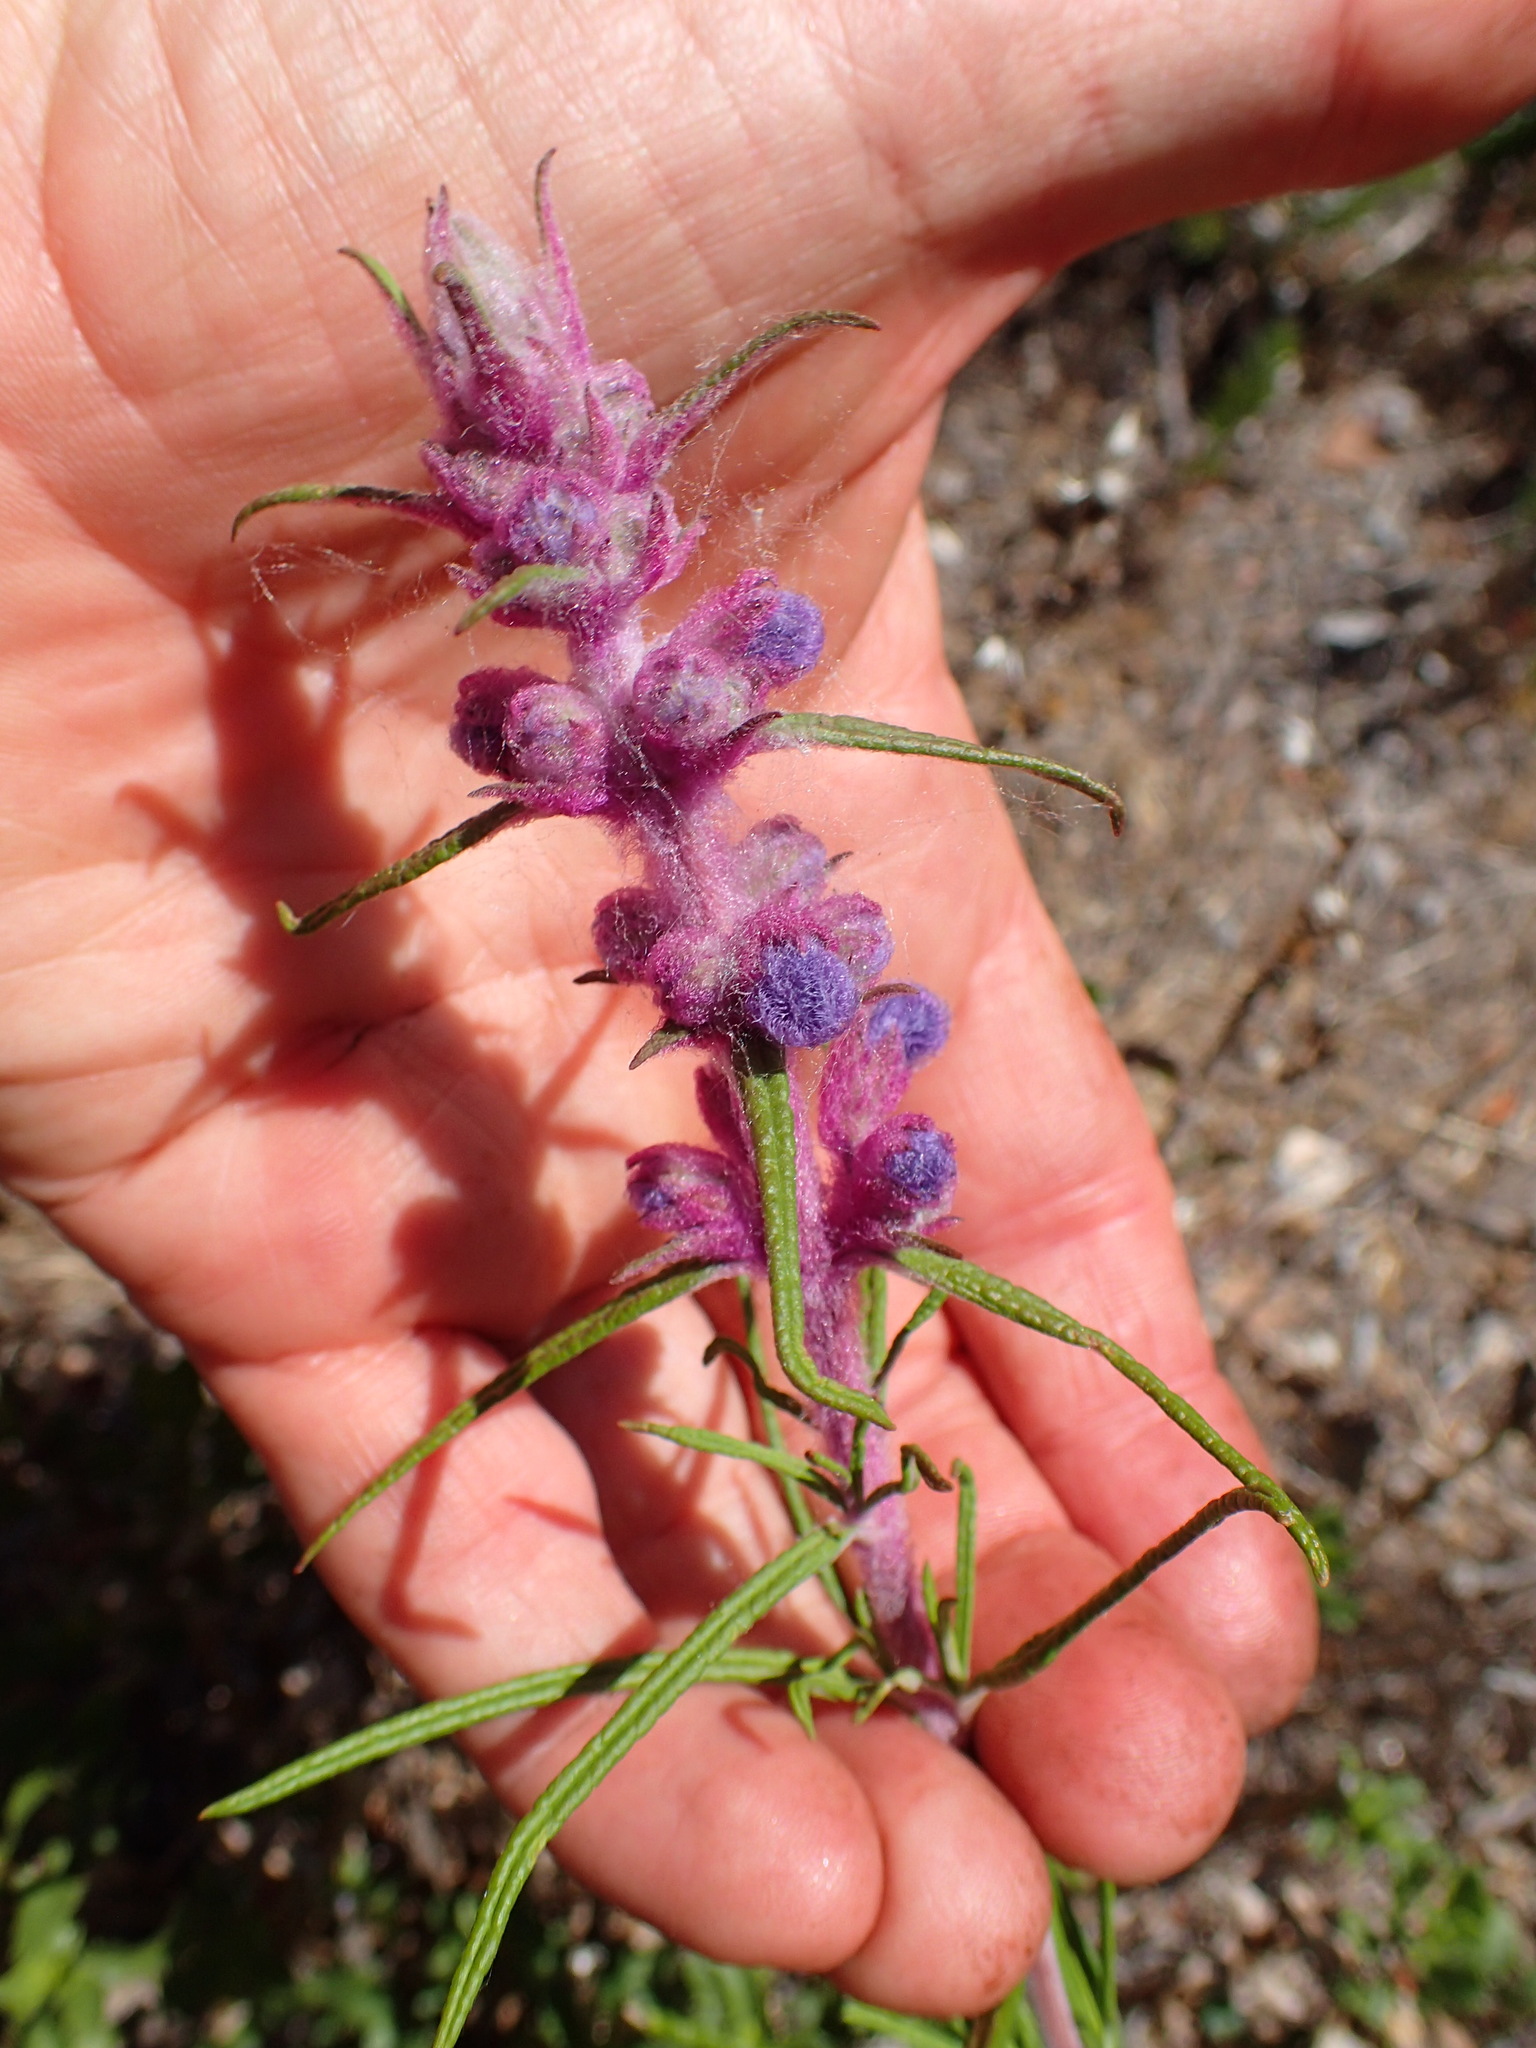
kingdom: Plantae
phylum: Tracheophyta
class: Magnoliopsida
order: Lamiales
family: Lamiaceae
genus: Trichostema
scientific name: Trichostema lanatum
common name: Woolly bluecurls
